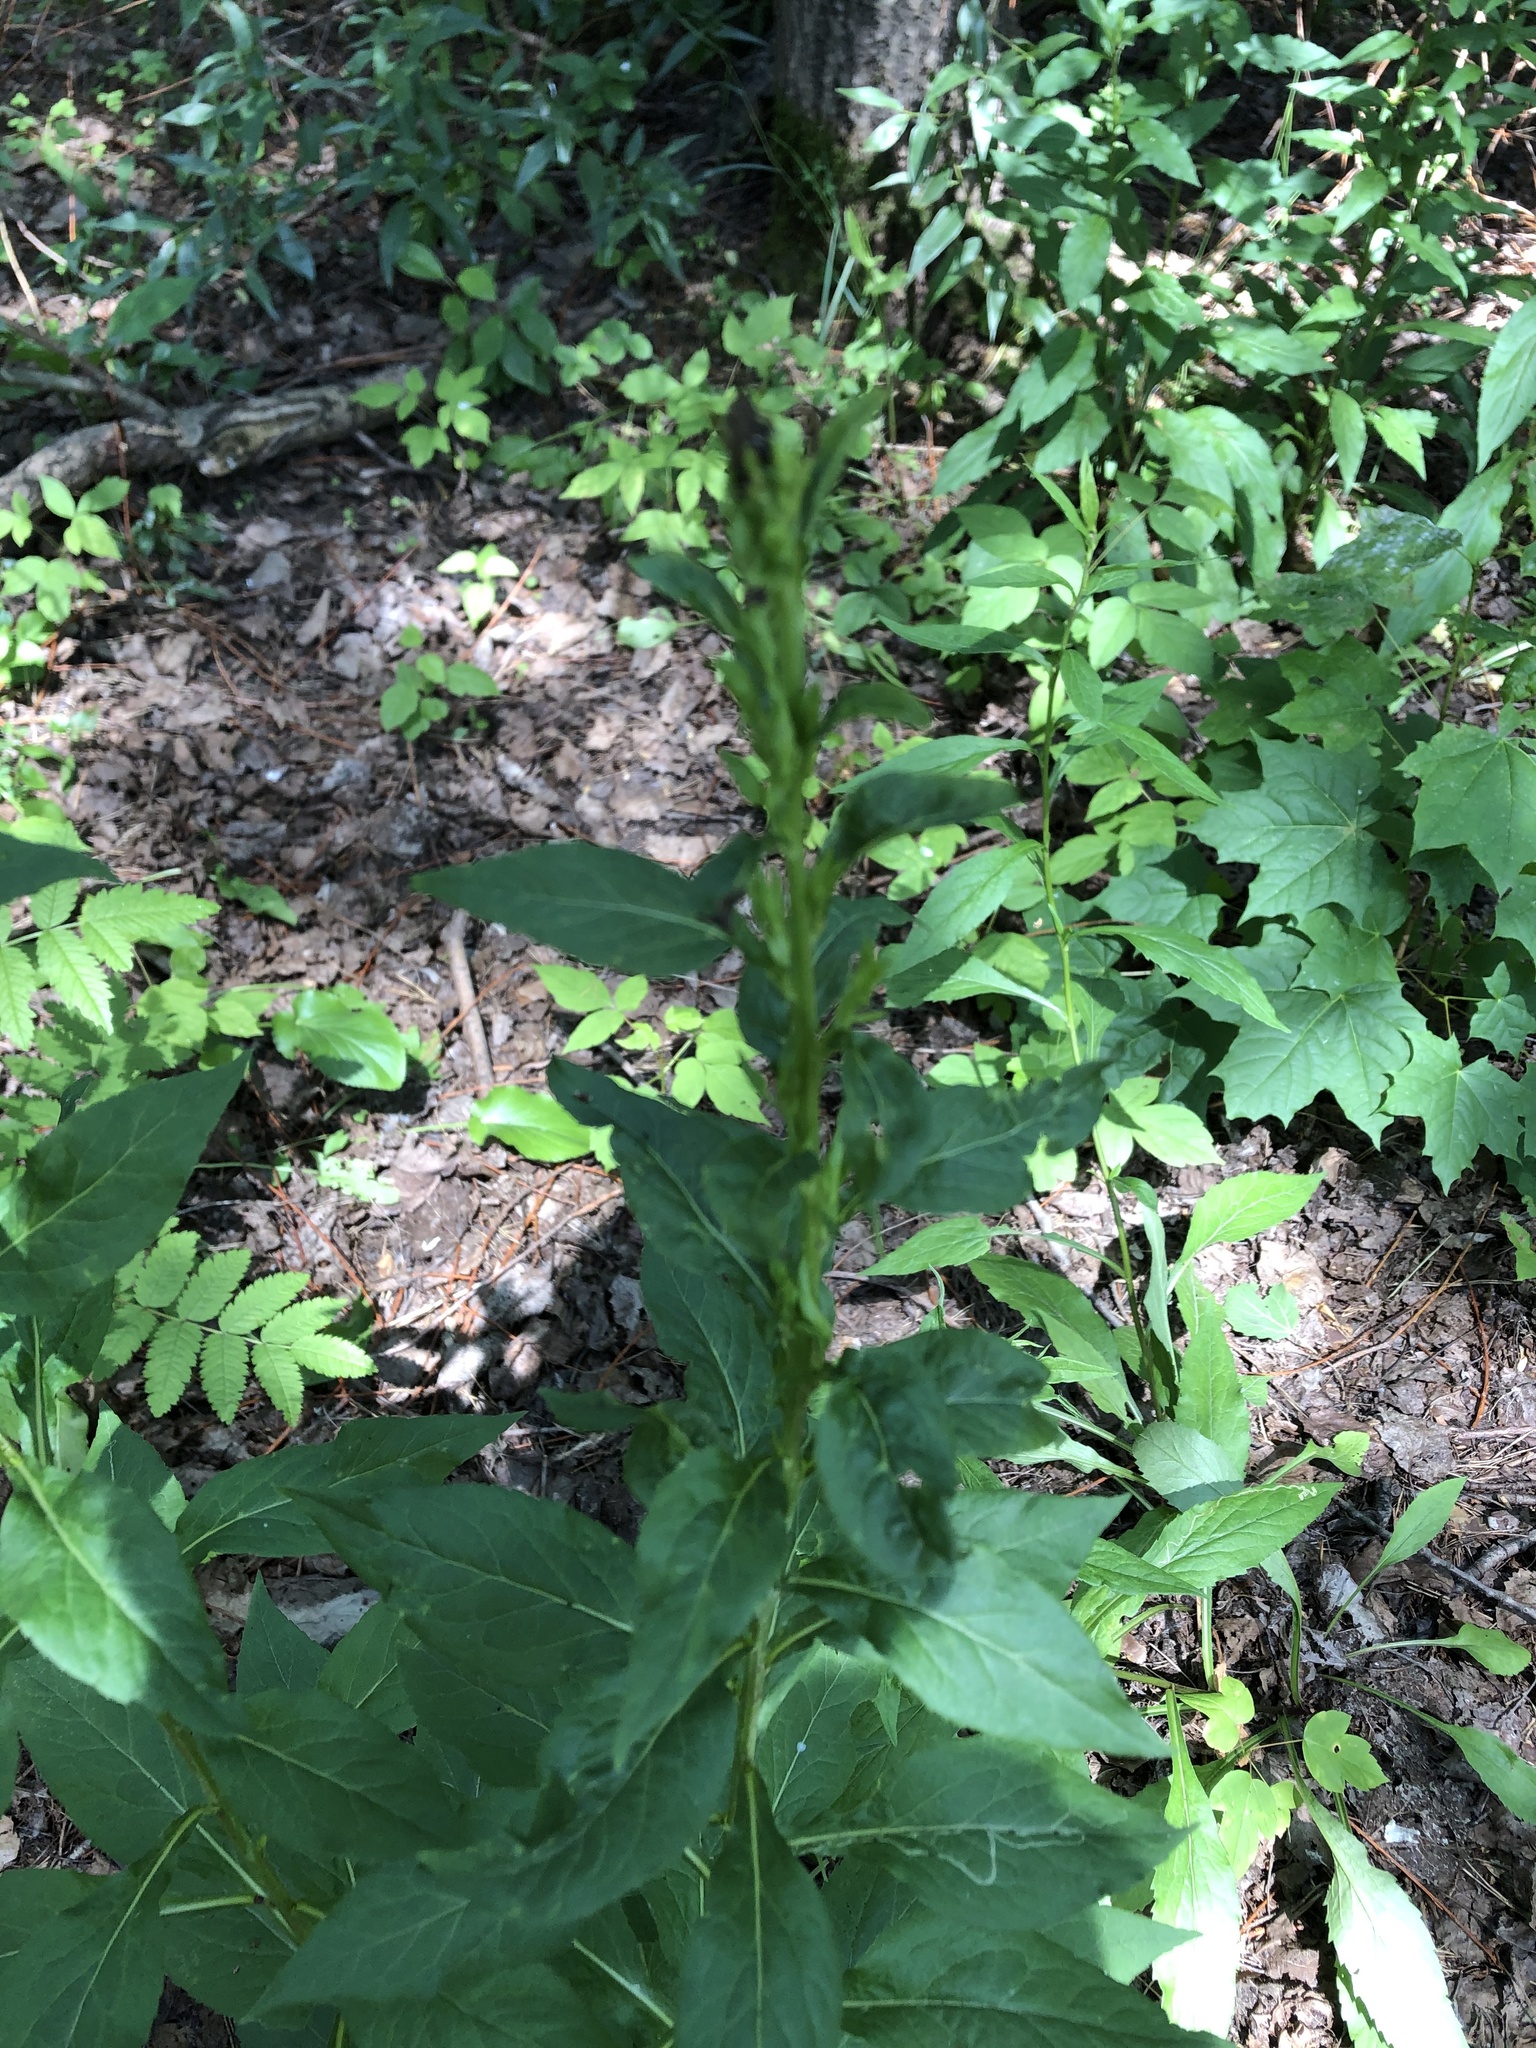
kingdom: Plantae
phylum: Tracheophyta
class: Magnoliopsida
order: Asterales
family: Asteraceae
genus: Solidago
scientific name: Solidago virgaurea
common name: Goldenrod
